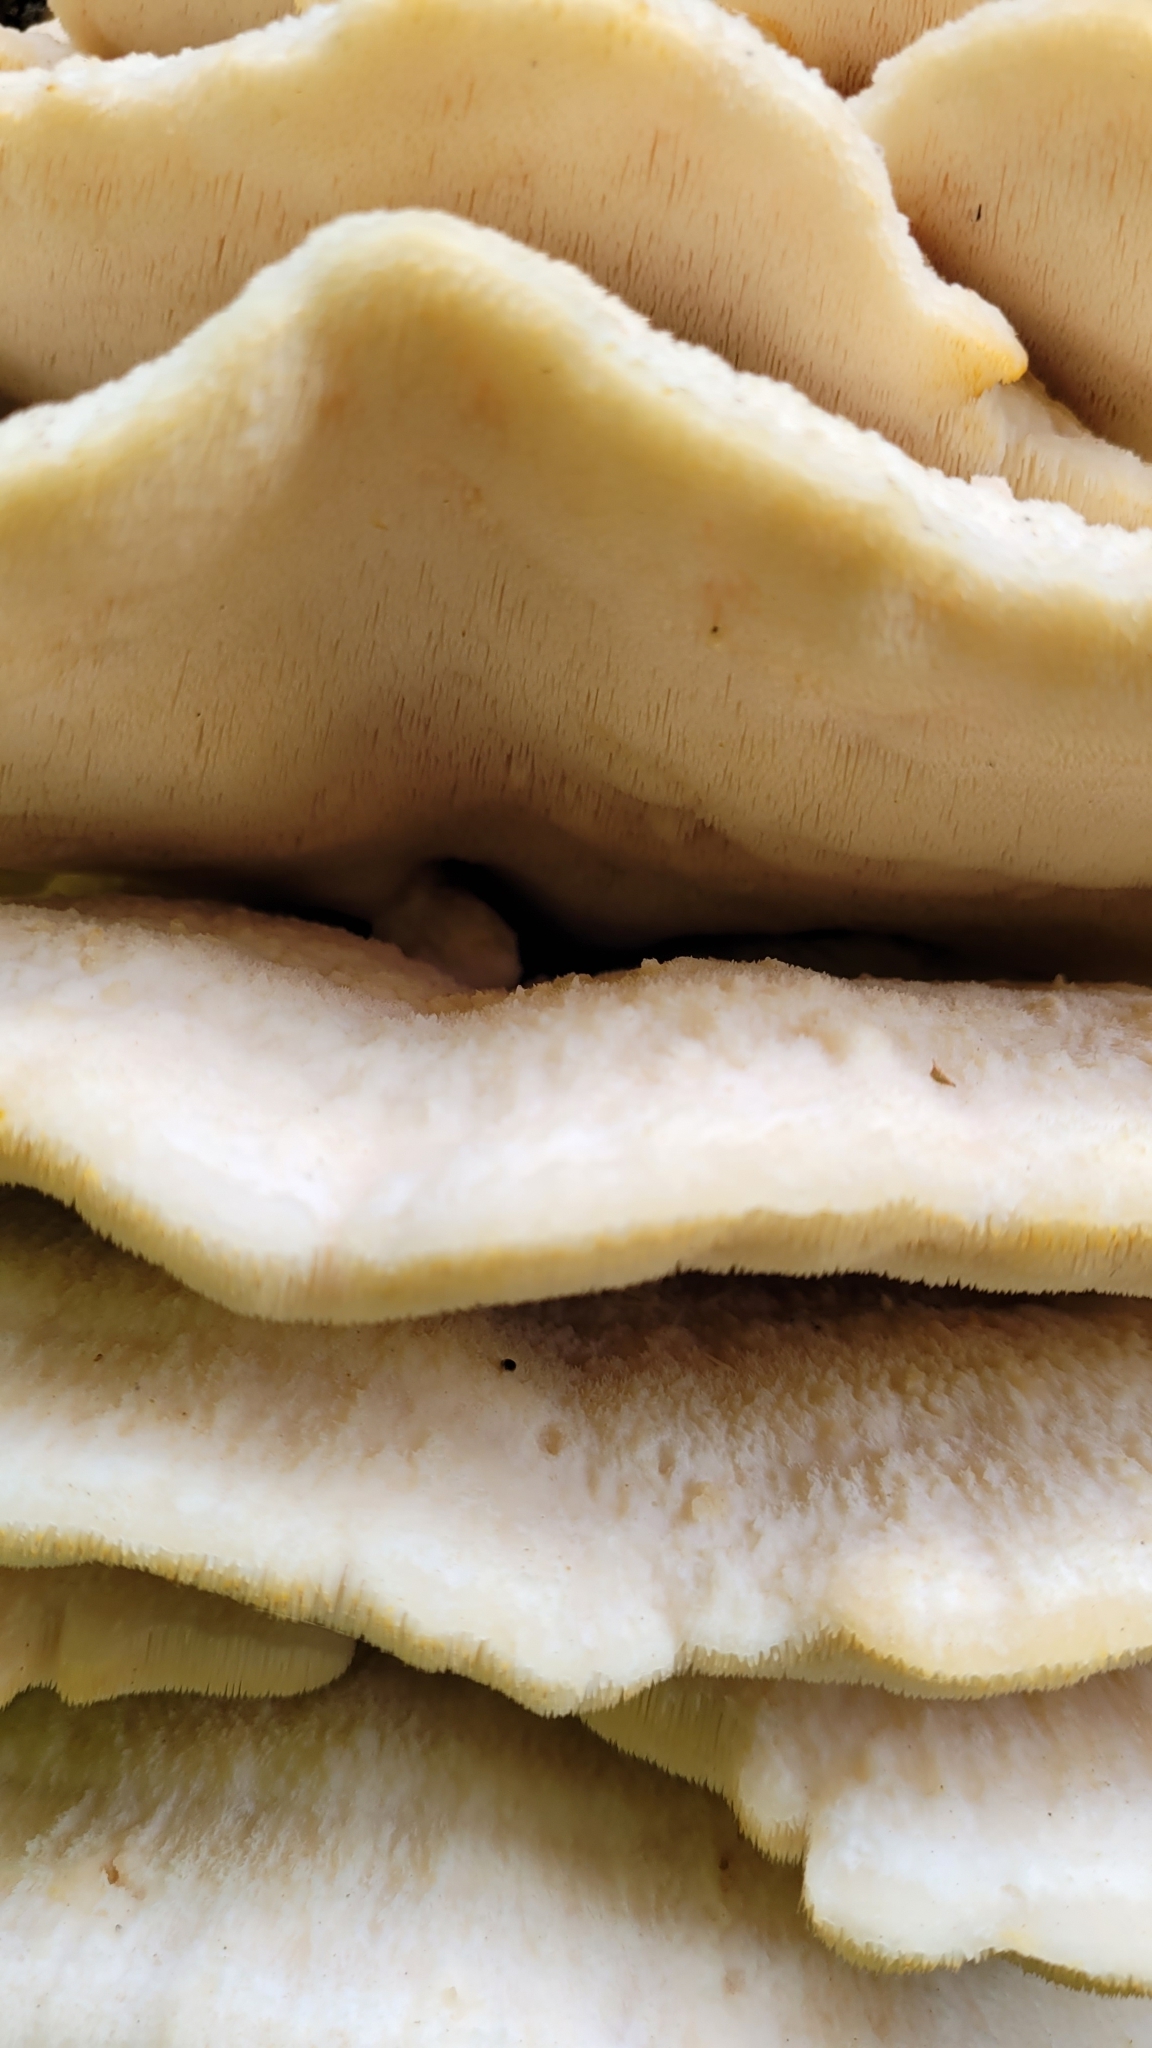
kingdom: Fungi
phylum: Basidiomycota
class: Agaricomycetes
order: Polyporales
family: Meruliaceae
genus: Climacodon
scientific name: Climacodon septentrionalis
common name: Northern tooth
